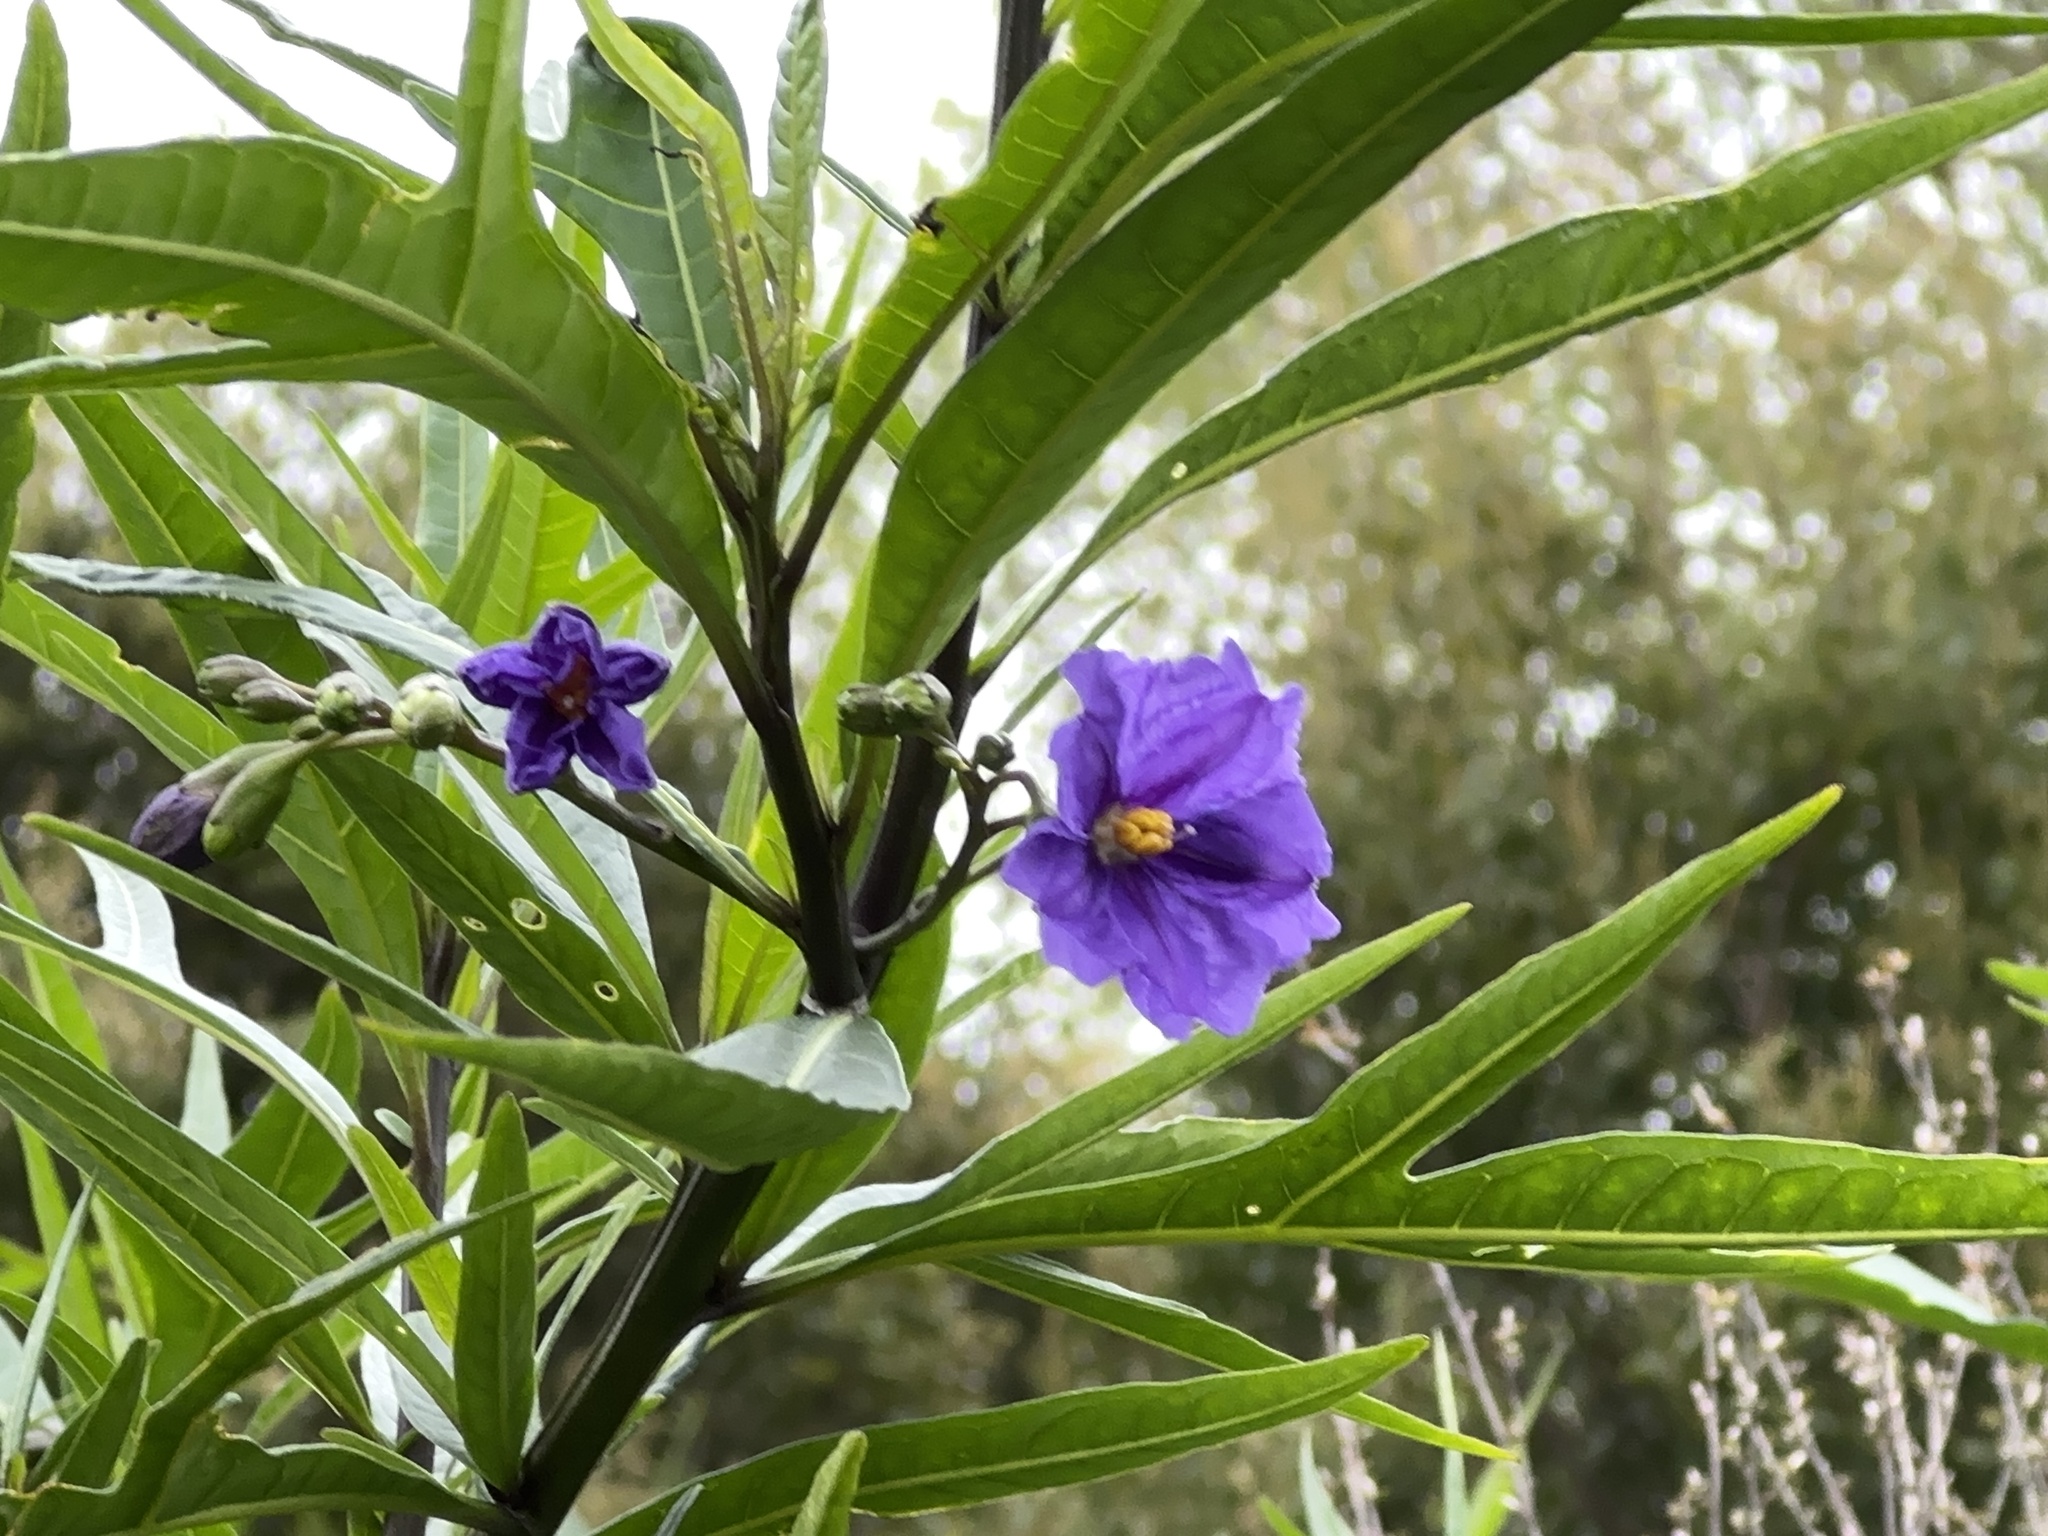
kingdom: Plantae
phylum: Tracheophyta
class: Magnoliopsida
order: Solanales
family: Solanaceae
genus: Solanum
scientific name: Solanum laciniatum
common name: Kangaroo-apple
